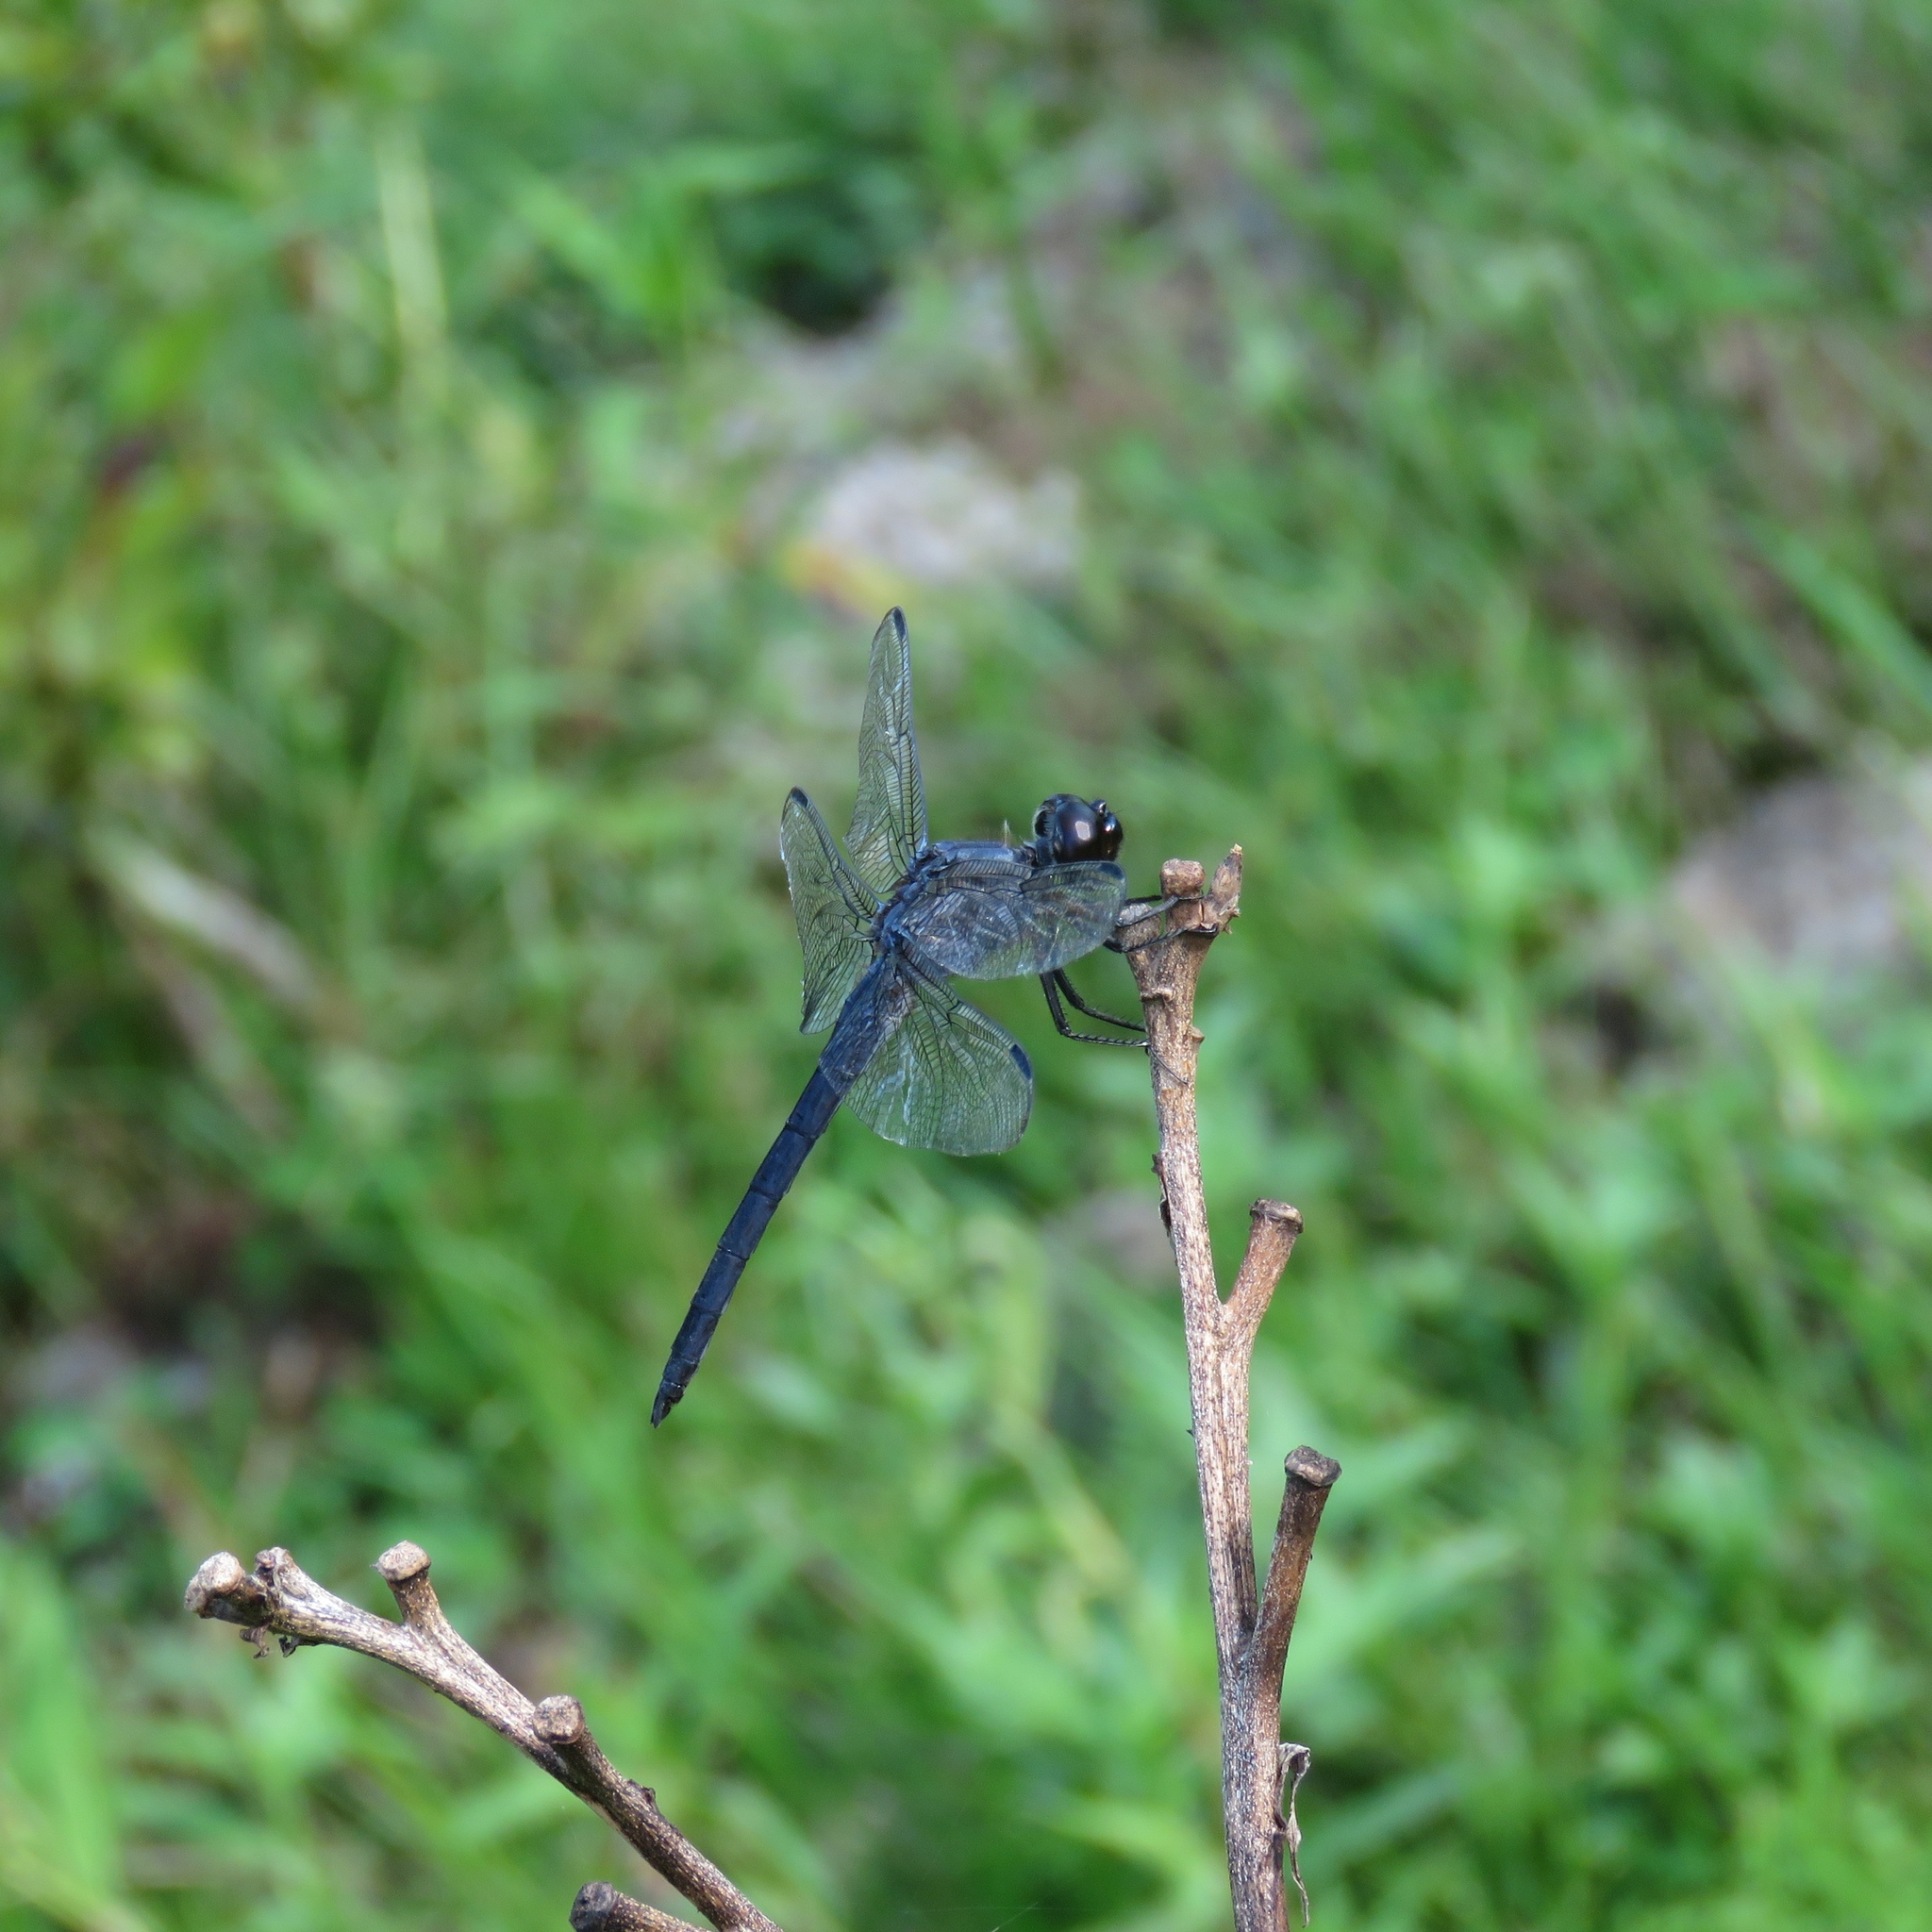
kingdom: Animalia
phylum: Arthropoda
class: Insecta
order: Odonata
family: Libellulidae
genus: Libellula
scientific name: Libellula incesta
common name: Slaty skimmer
